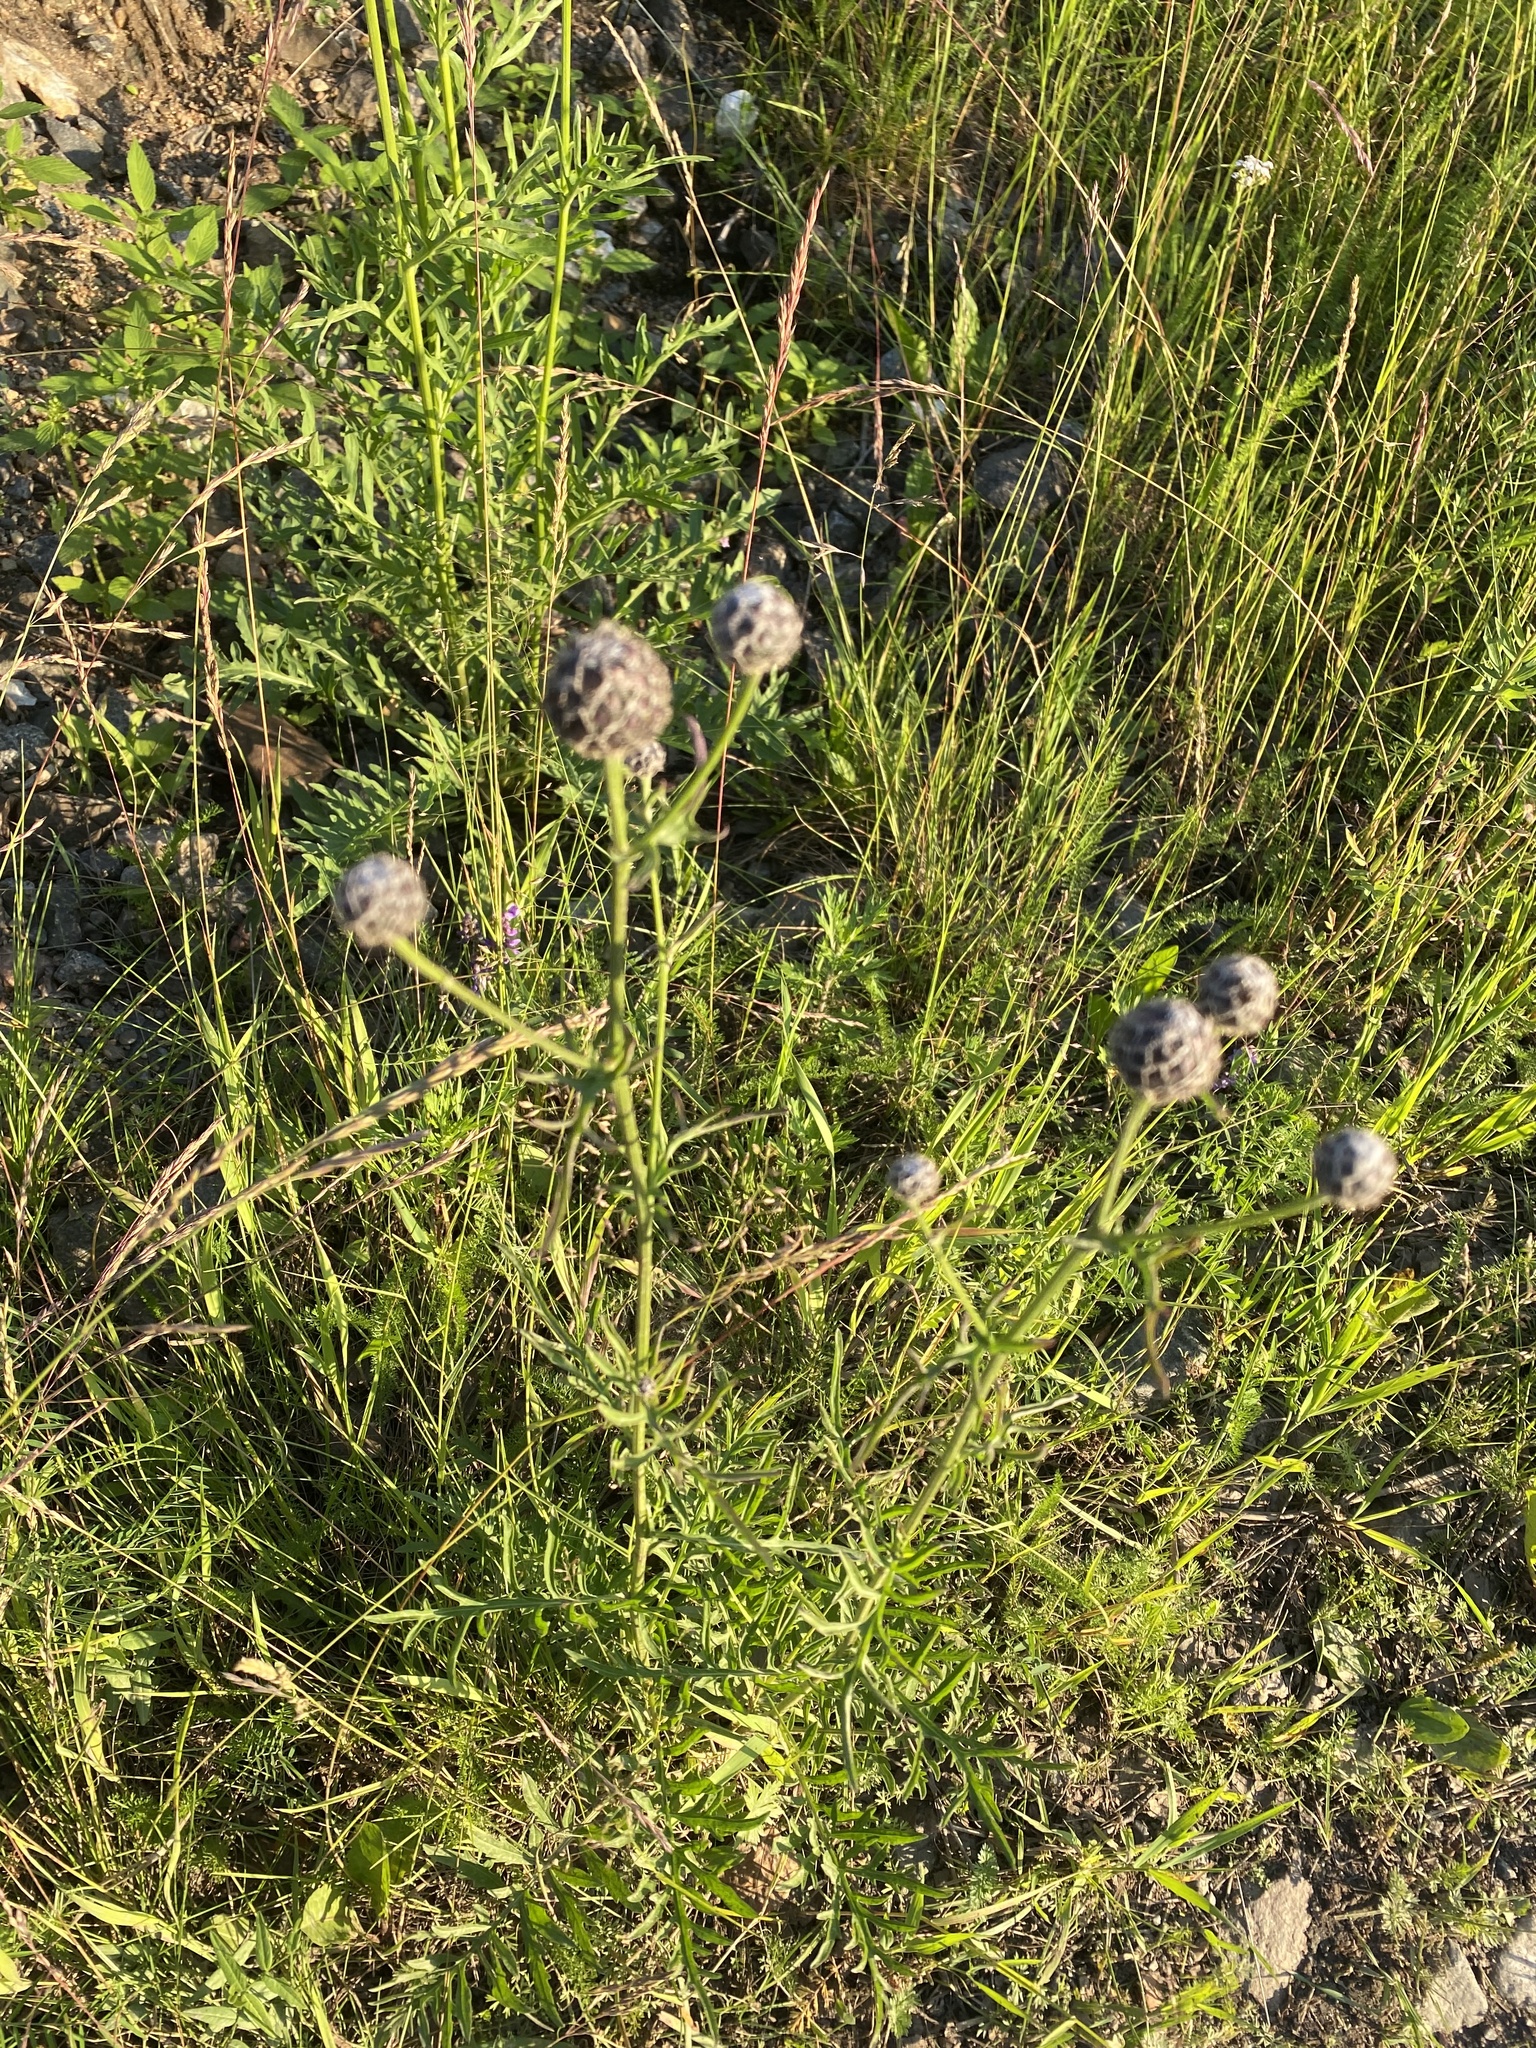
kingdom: Plantae
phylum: Tracheophyta
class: Magnoliopsida
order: Asterales
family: Asteraceae
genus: Centaurea
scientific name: Centaurea scabiosa
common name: Greater knapweed
